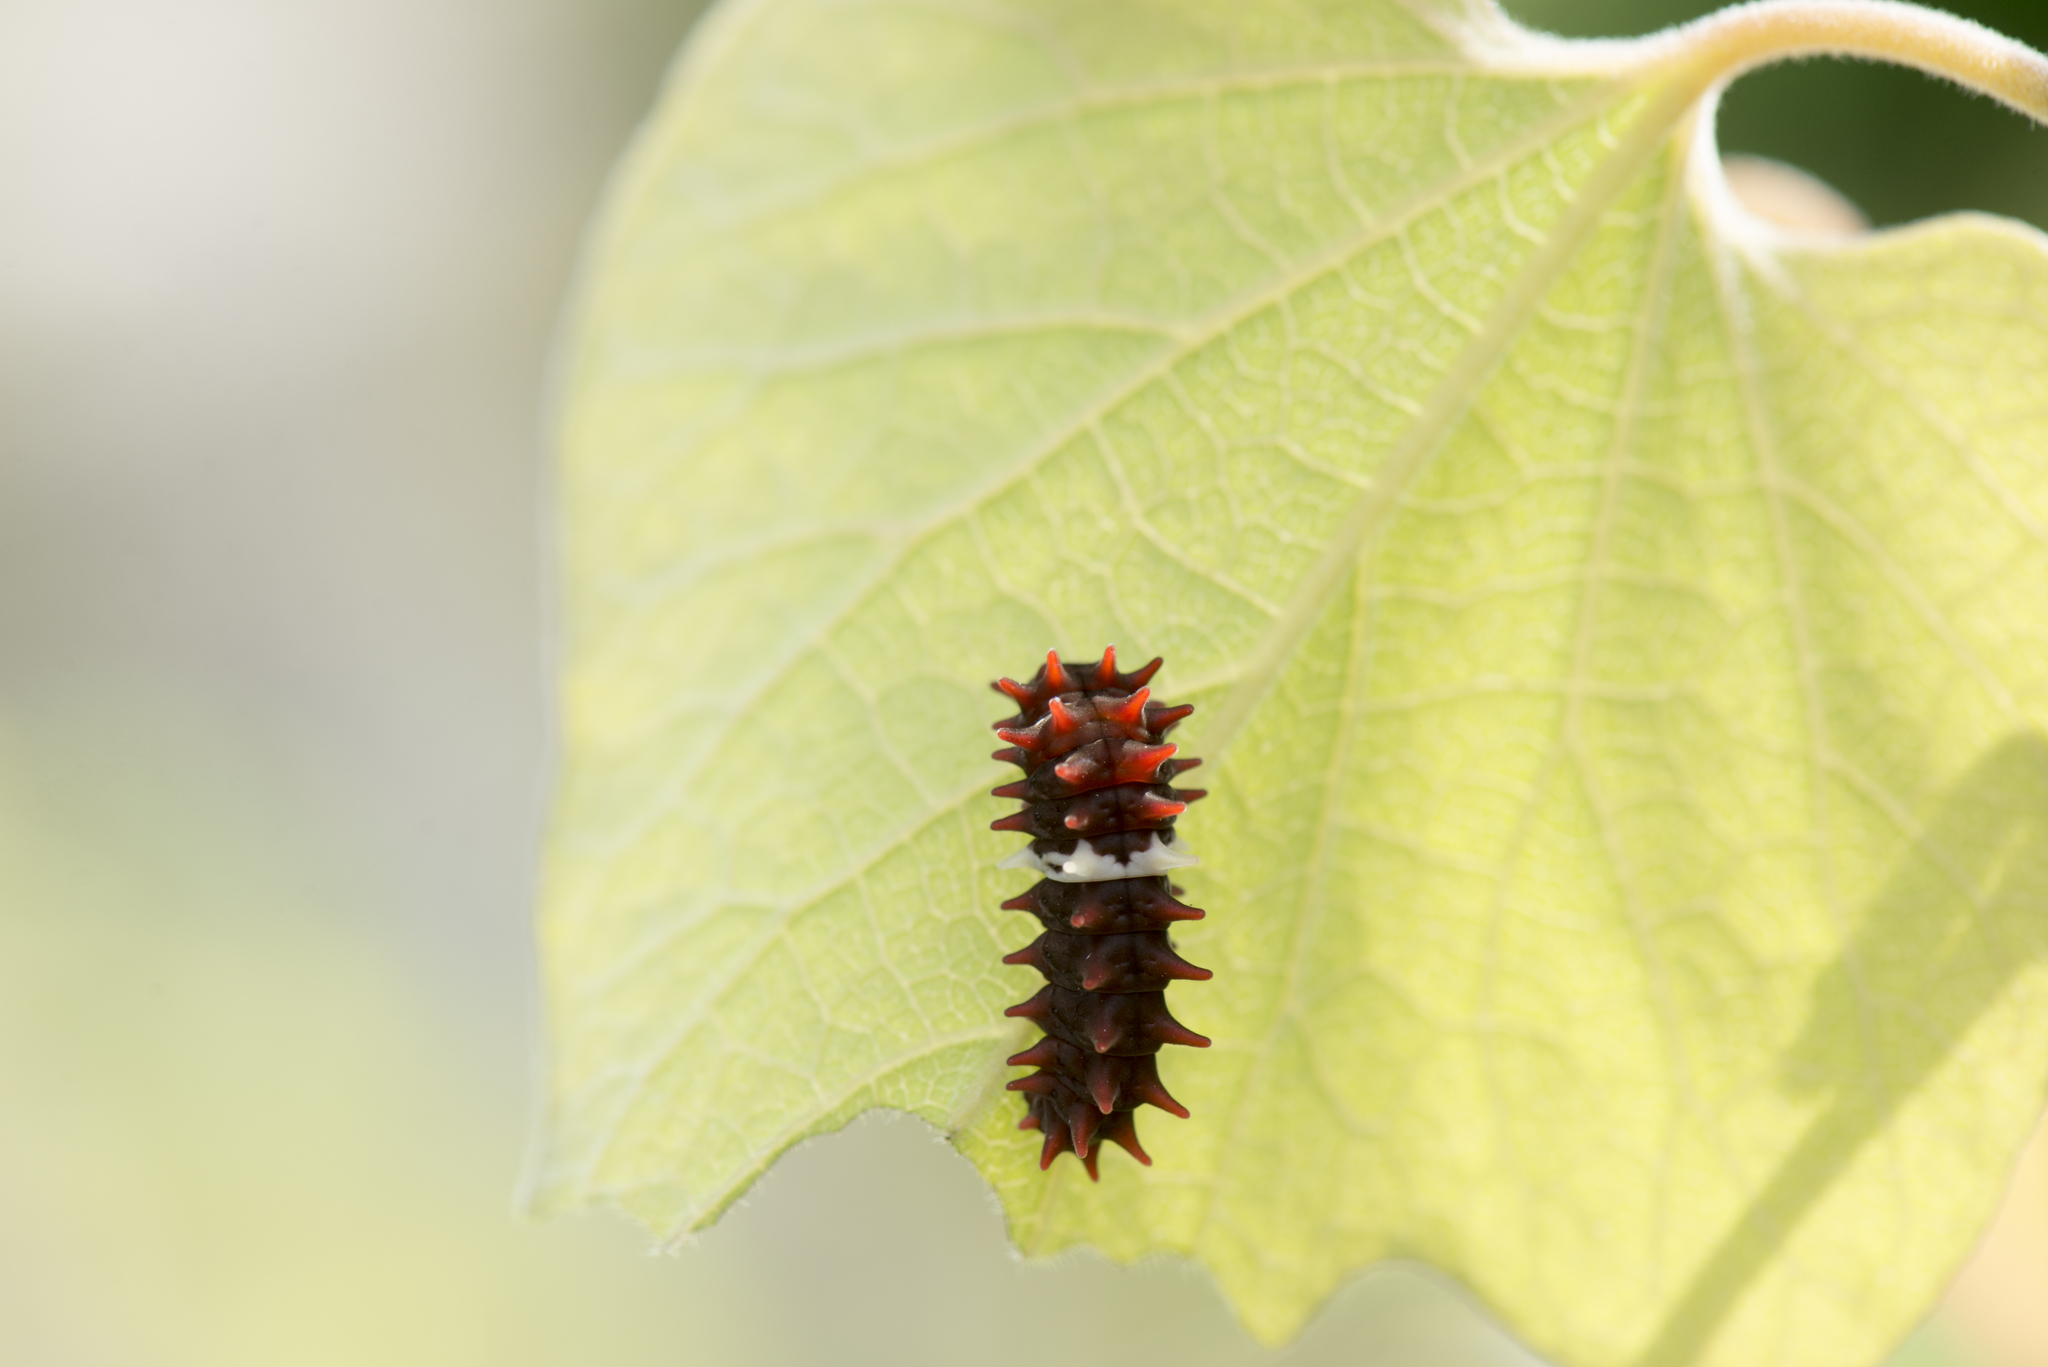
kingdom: Animalia
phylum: Arthropoda
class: Insecta
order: Lepidoptera
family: Papilionidae
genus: Pachliopta
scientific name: Pachliopta aristolochiae
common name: Common rose
